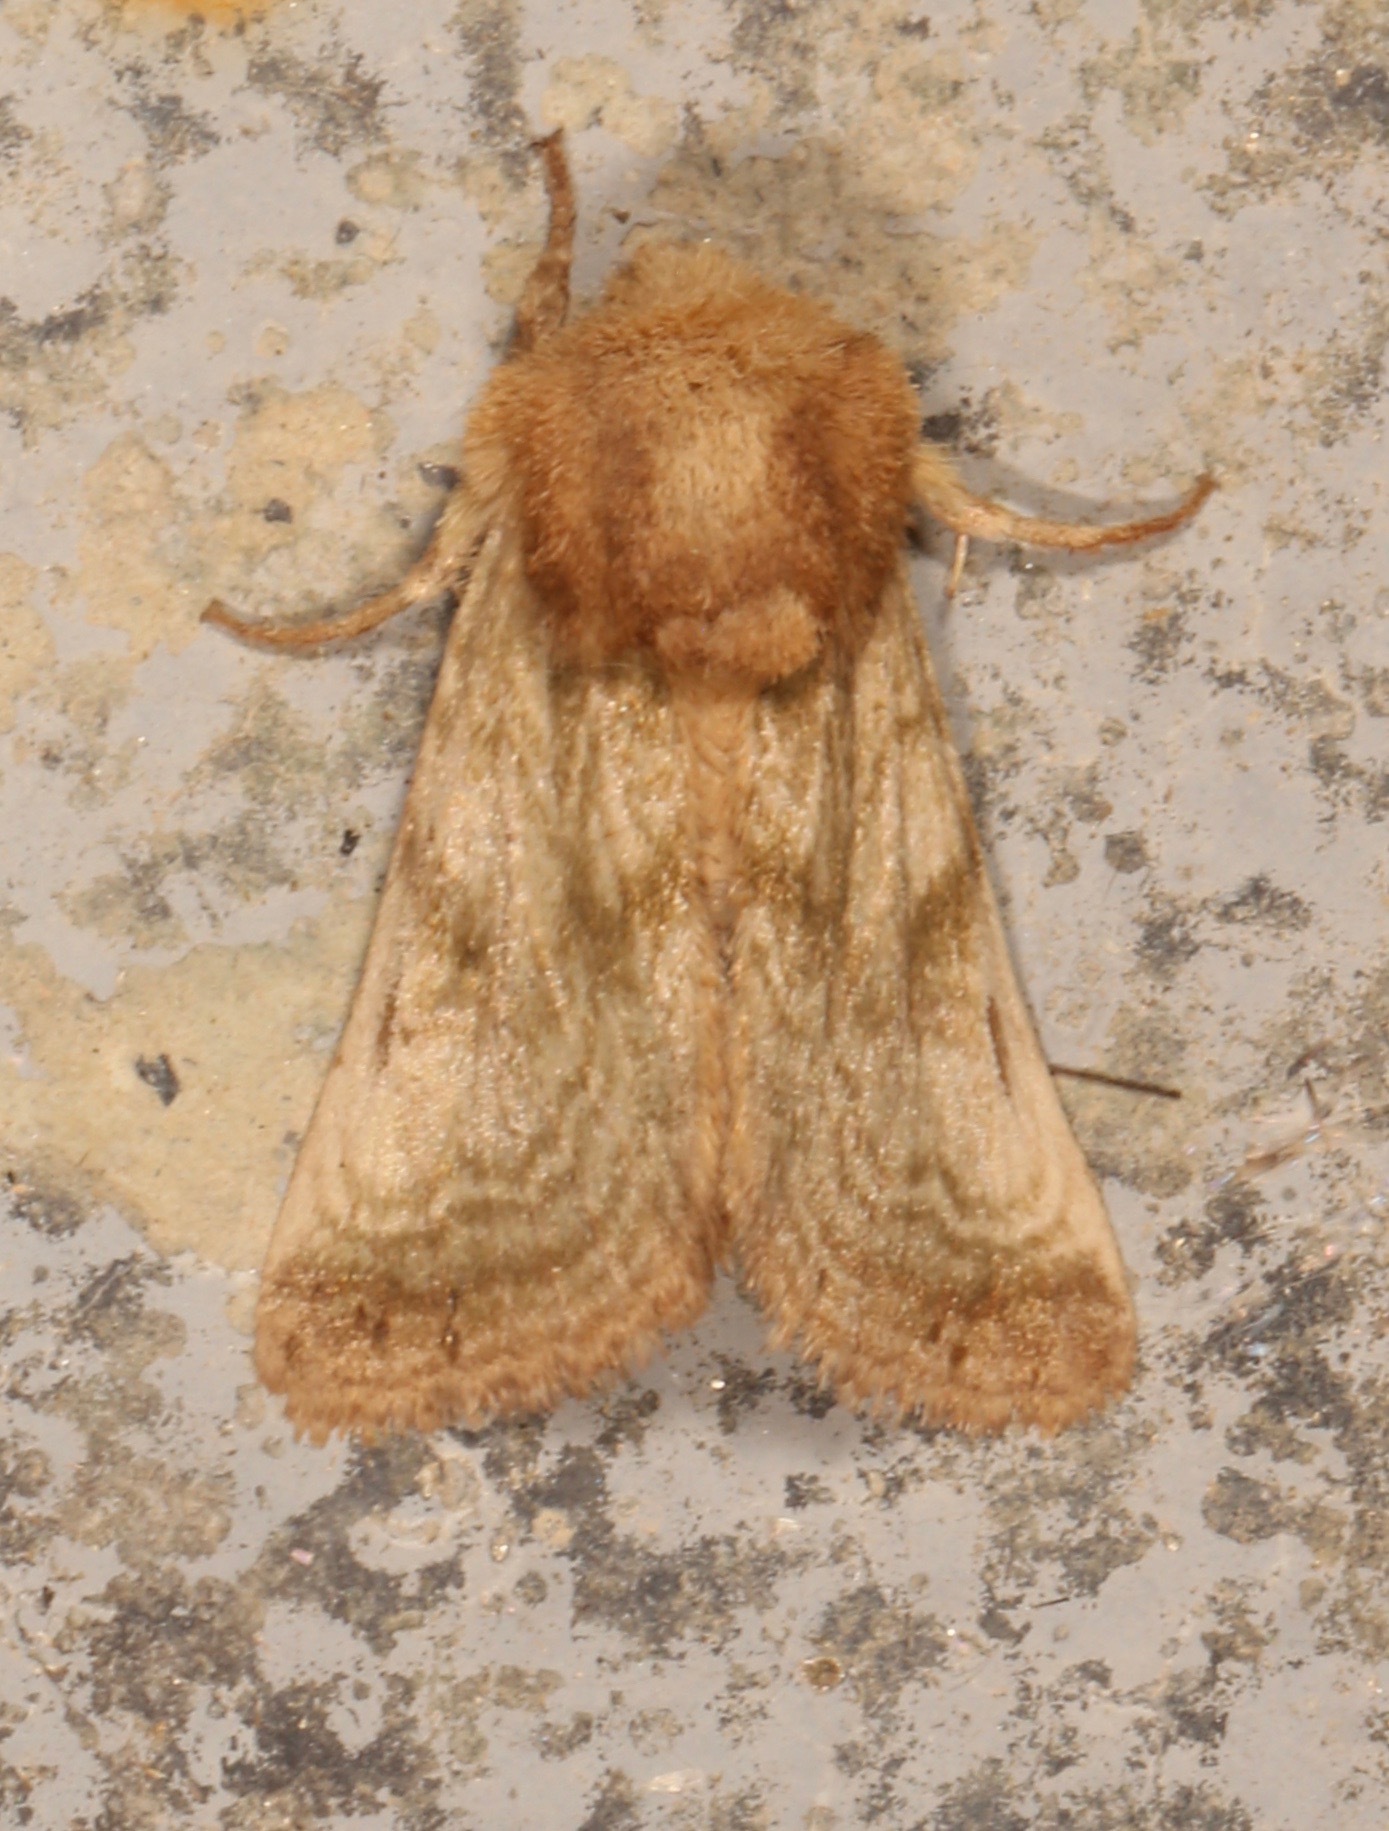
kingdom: Animalia
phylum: Arthropoda
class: Insecta
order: Lepidoptera
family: Noctuidae
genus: Nocloa
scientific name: Nocloa rivulosa
